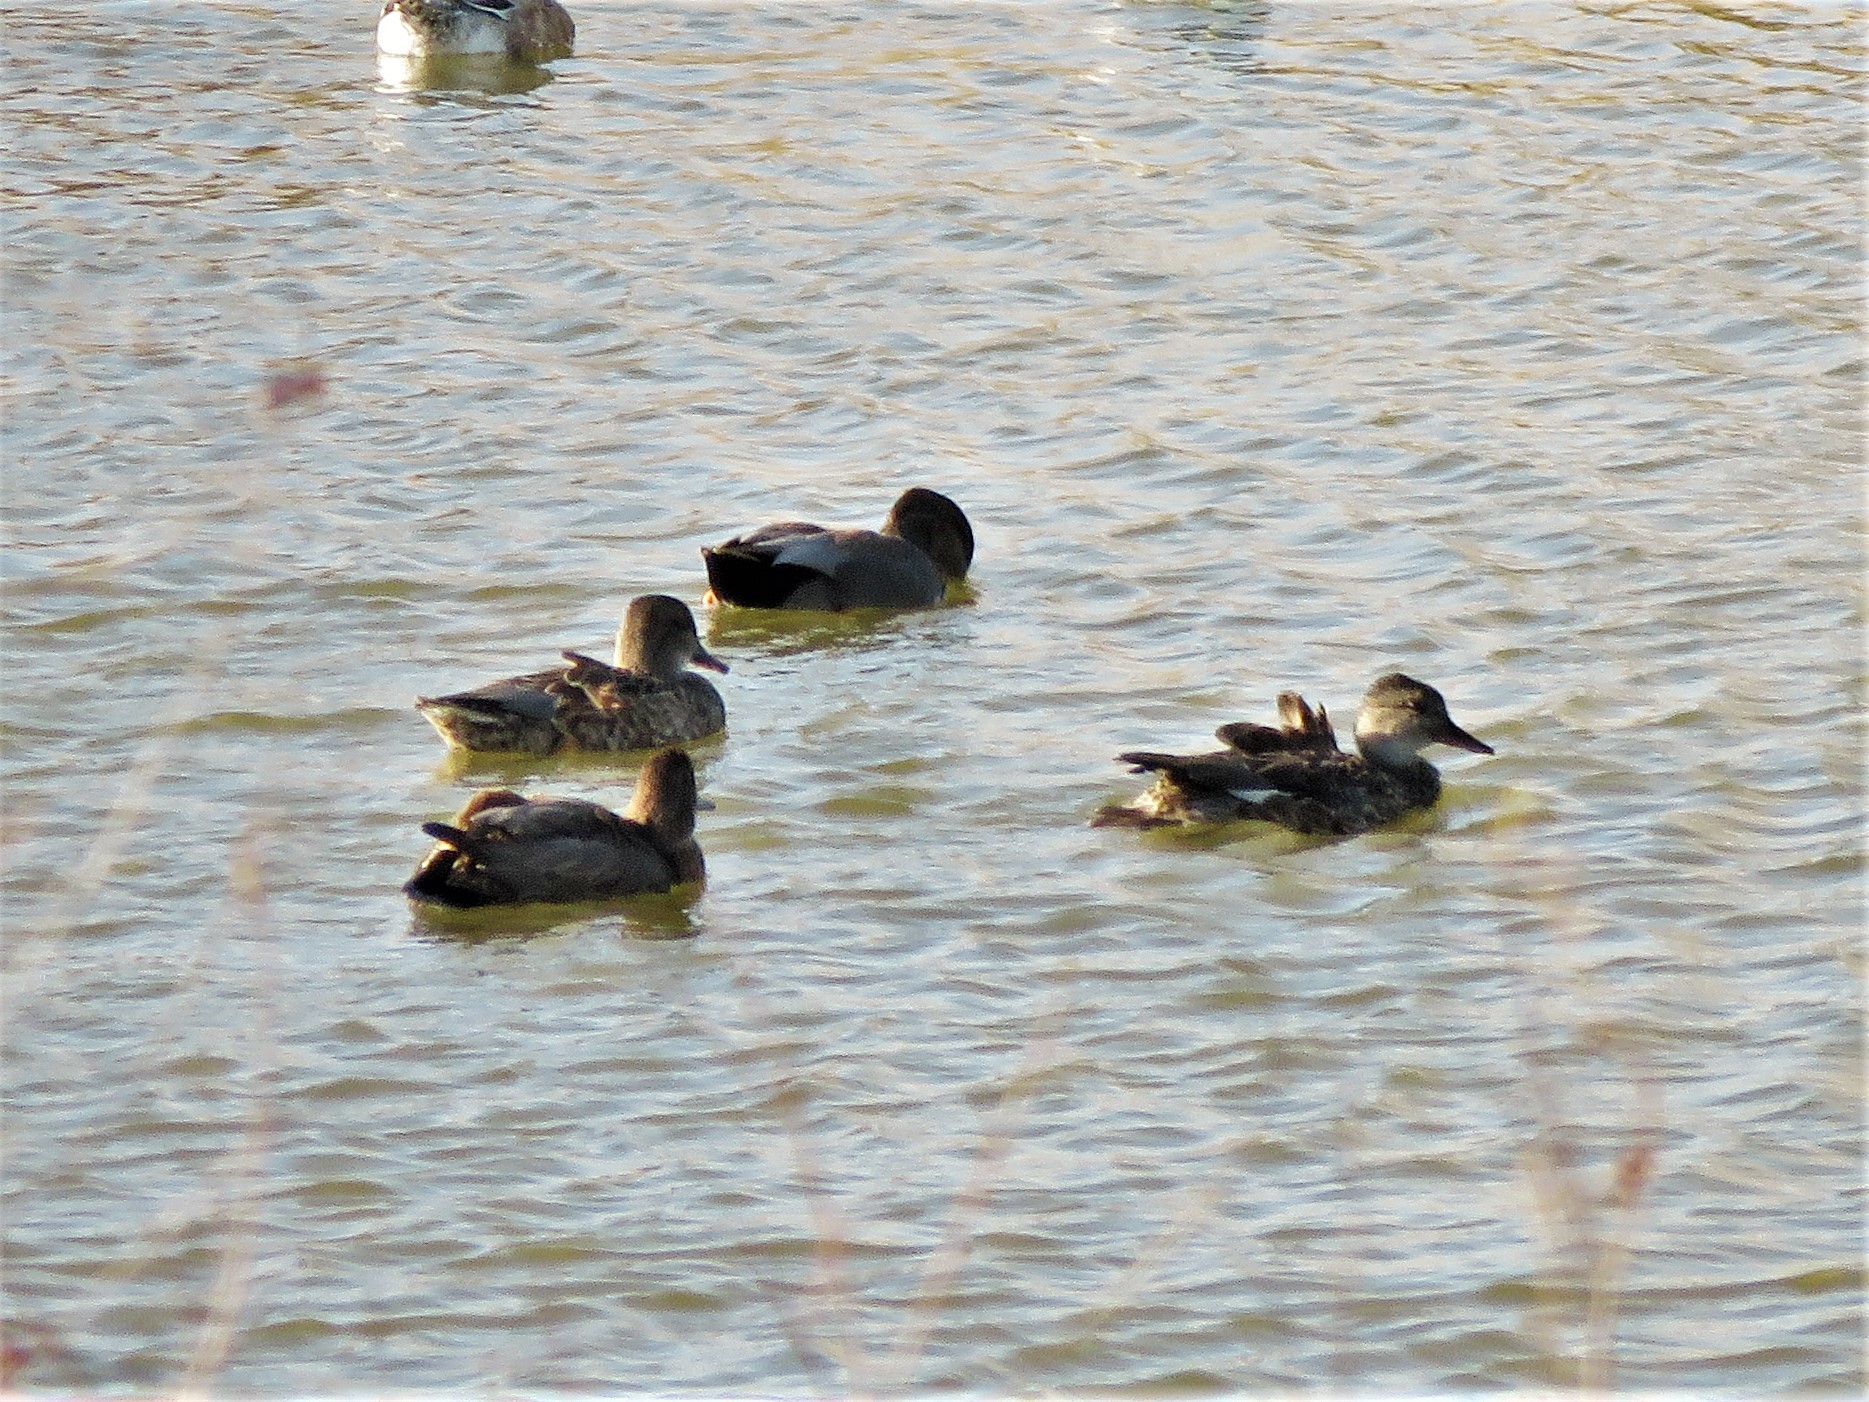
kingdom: Animalia
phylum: Chordata
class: Aves
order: Anseriformes
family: Anatidae
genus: Mareca
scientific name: Mareca strepera
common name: Gadwall
